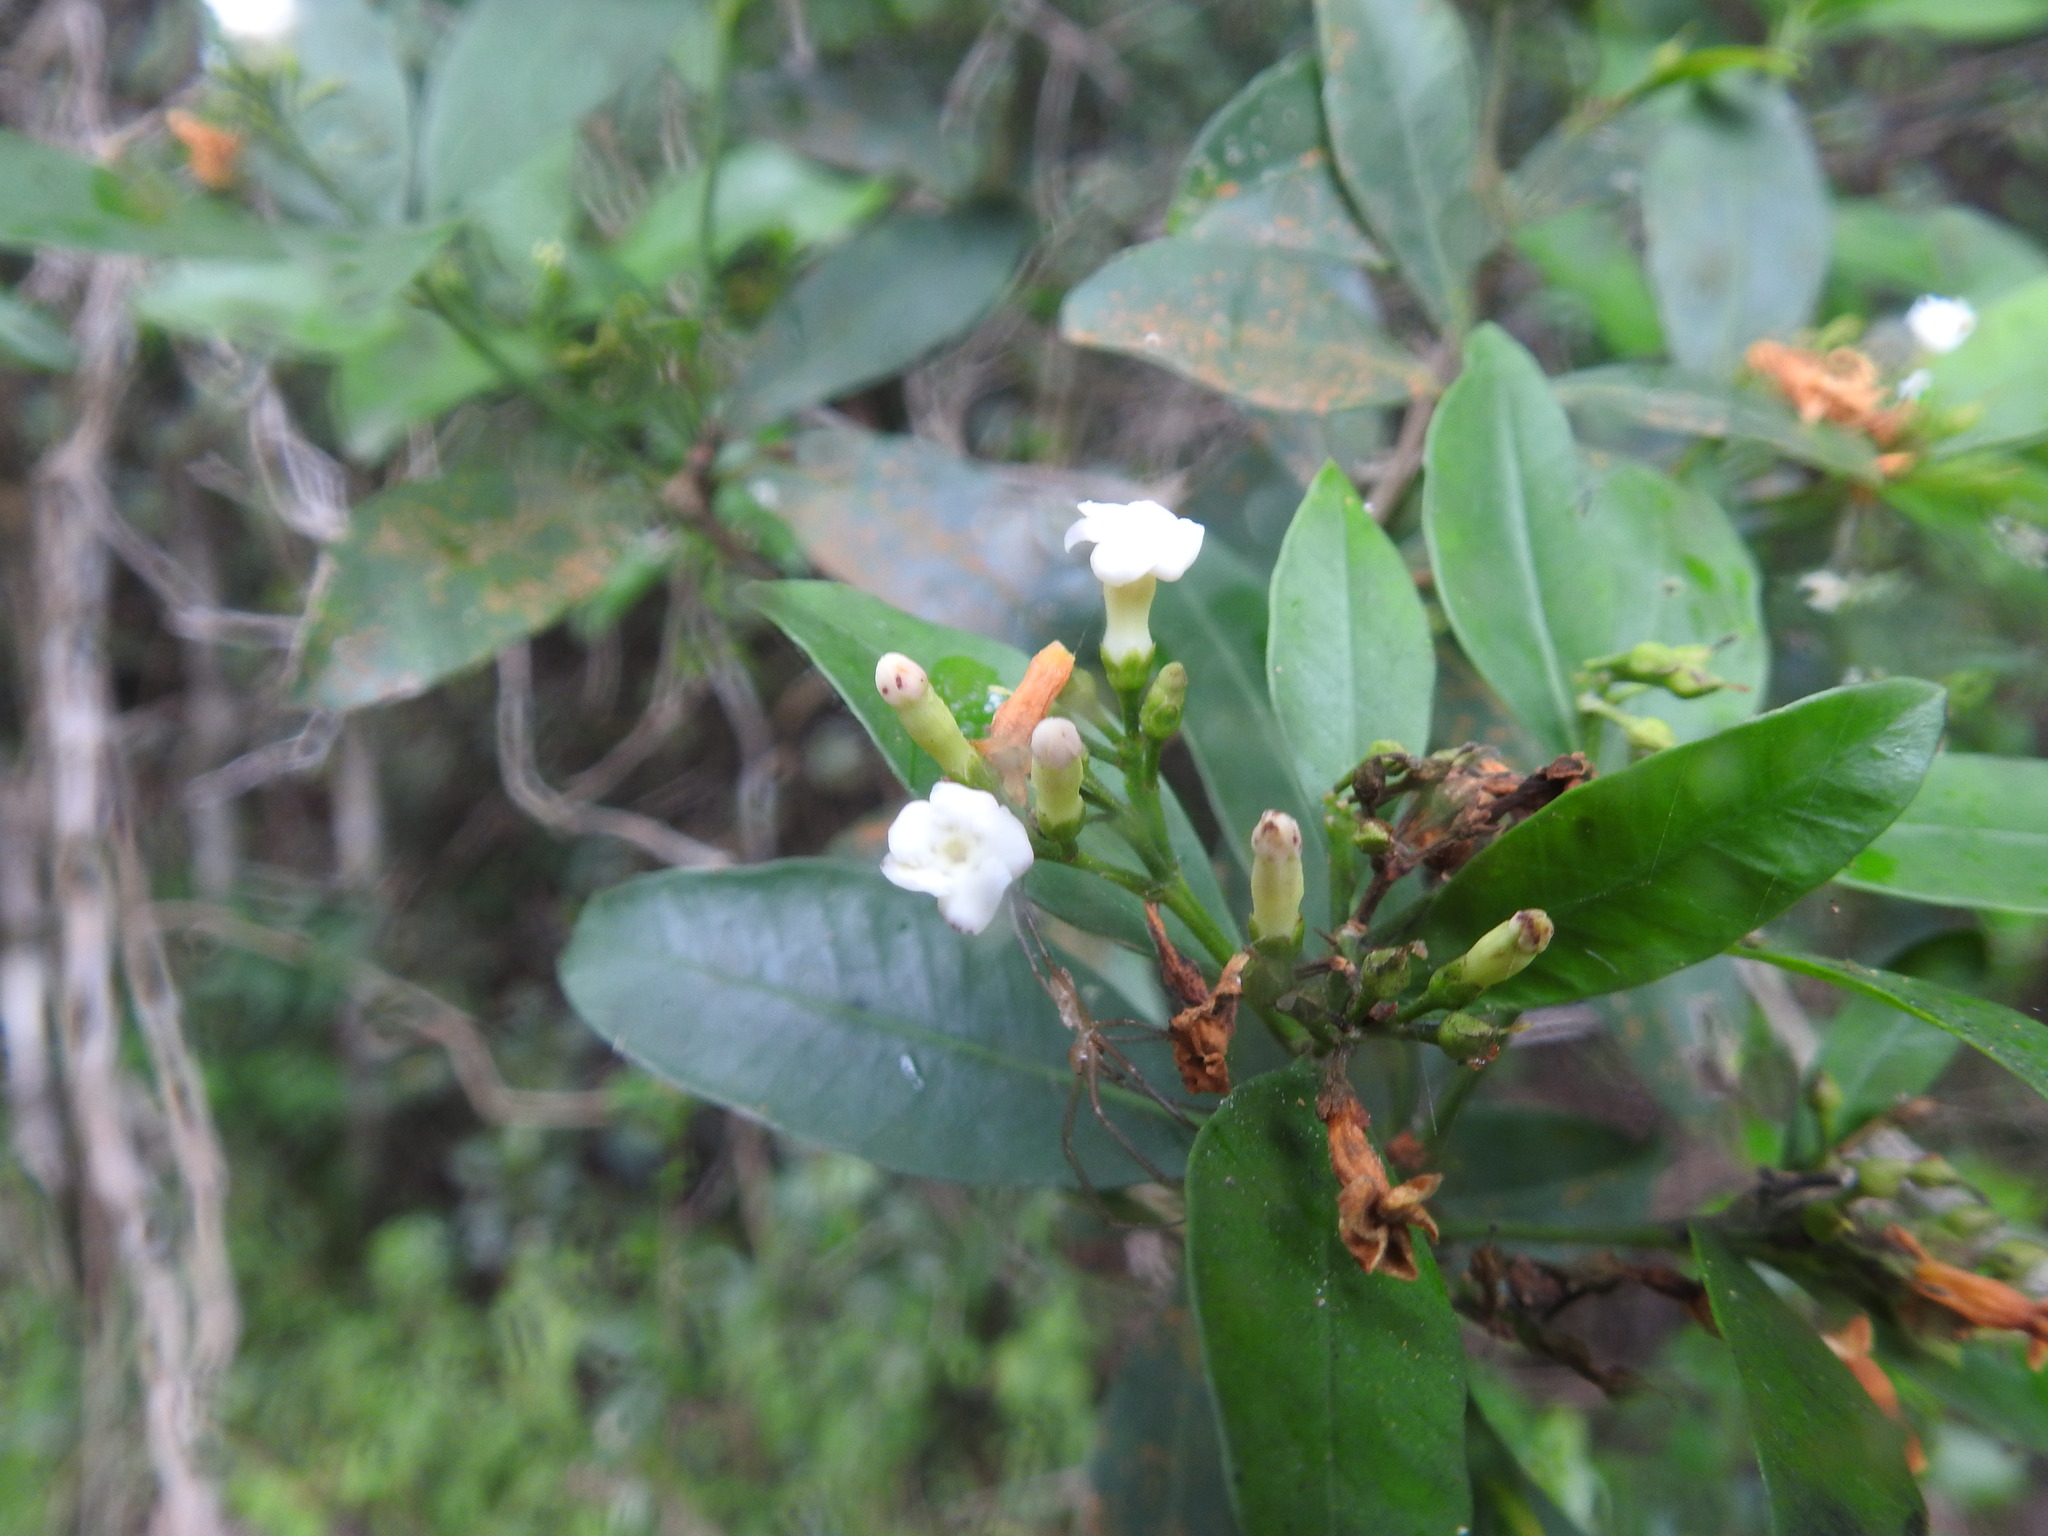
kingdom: Plantae
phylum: Tracheophyta
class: Magnoliopsida
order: Gentianales
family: Apocynaceae
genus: Gonioma
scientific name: Gonioma kamassi
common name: Kamassi
